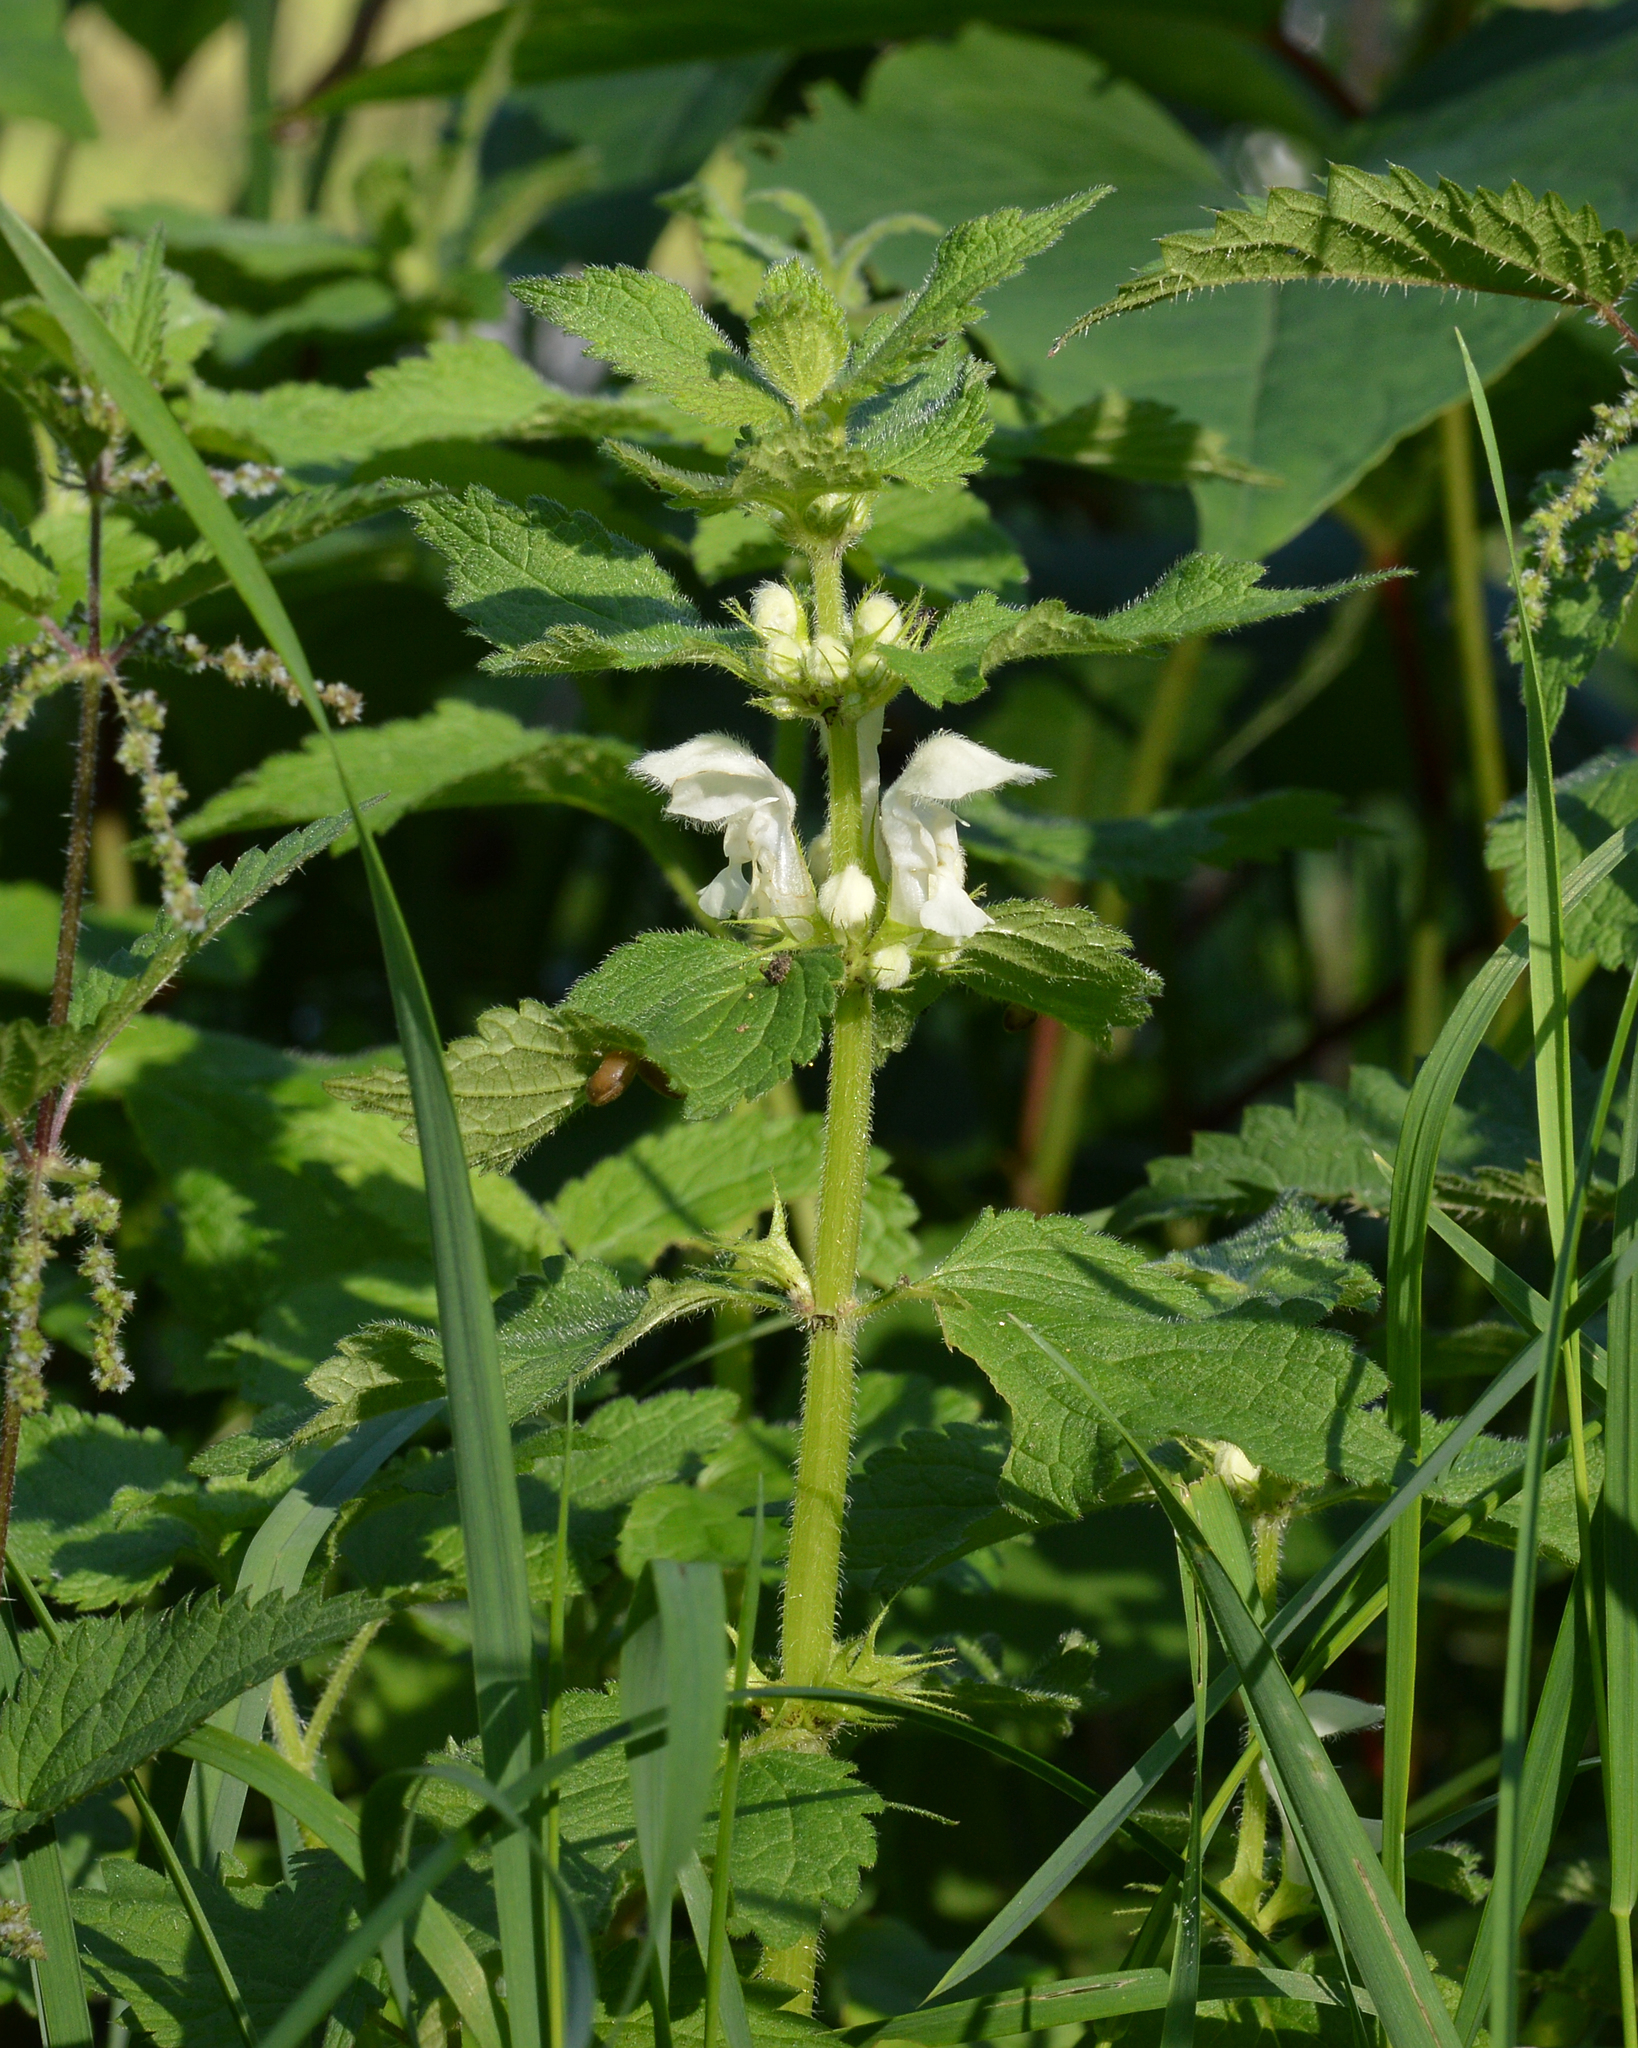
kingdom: Plantae
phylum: Tracheophyta
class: Magnoliopsida
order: Lamiales
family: Lamiaceae
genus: Lamium
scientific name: Lamium album
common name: White dead-nettle
